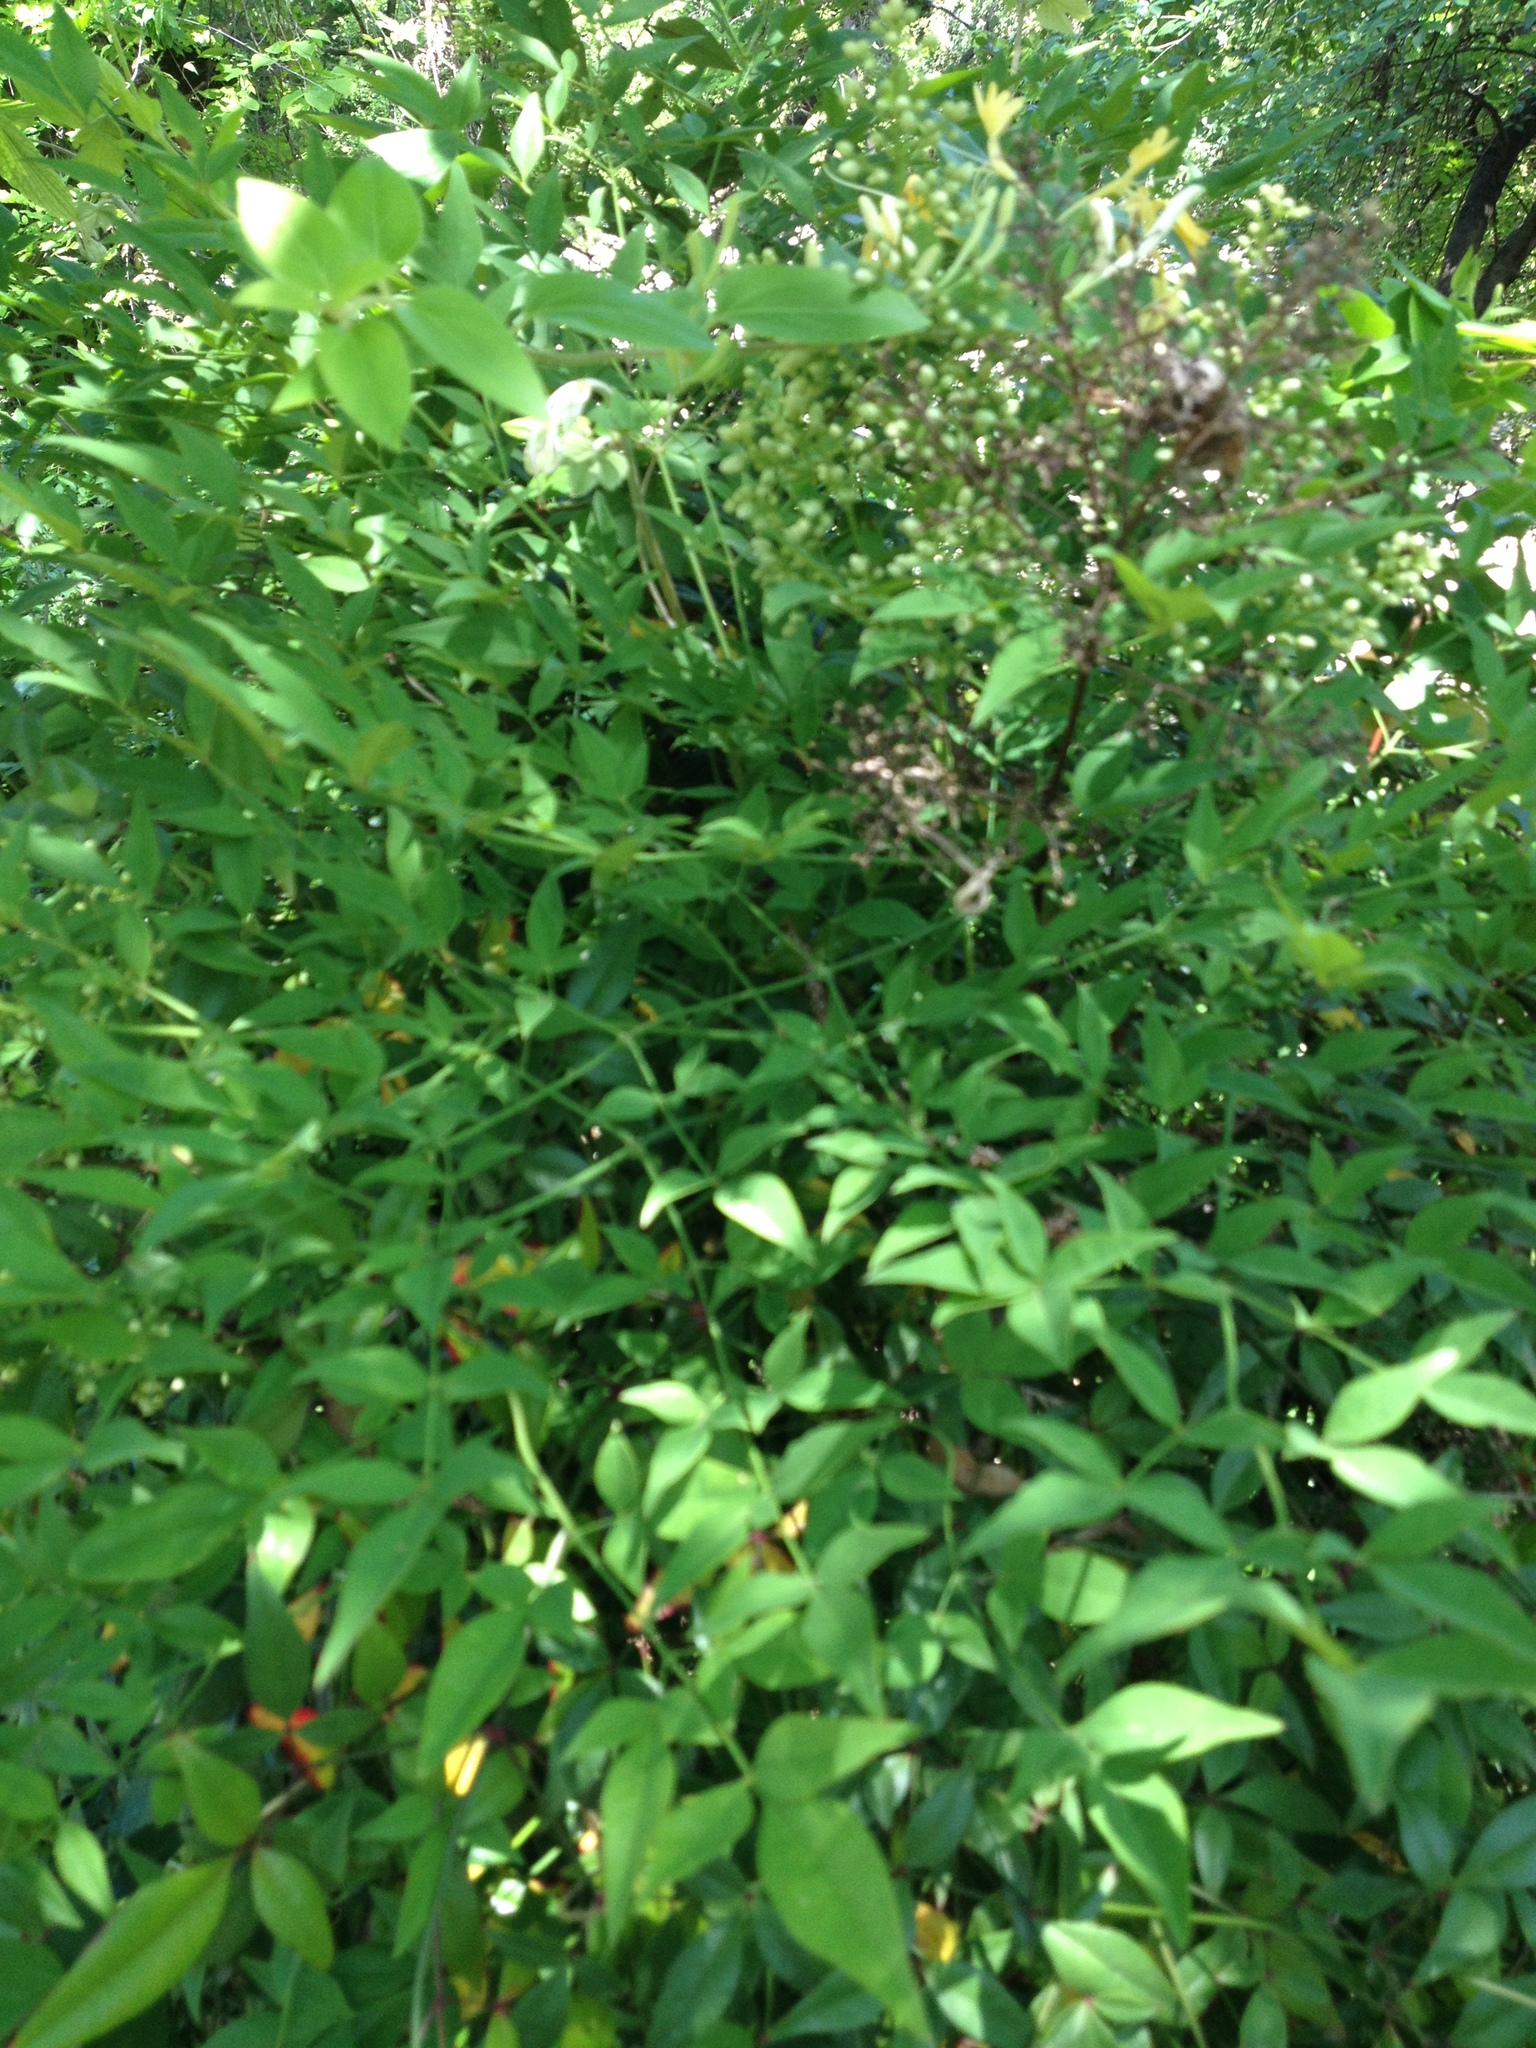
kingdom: Plantae
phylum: Tracheophyta
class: Magnoliopsida
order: Ranunculales
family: Berberidaceae
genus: Nandina
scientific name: Nandina domestica
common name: Sacred bamboo
